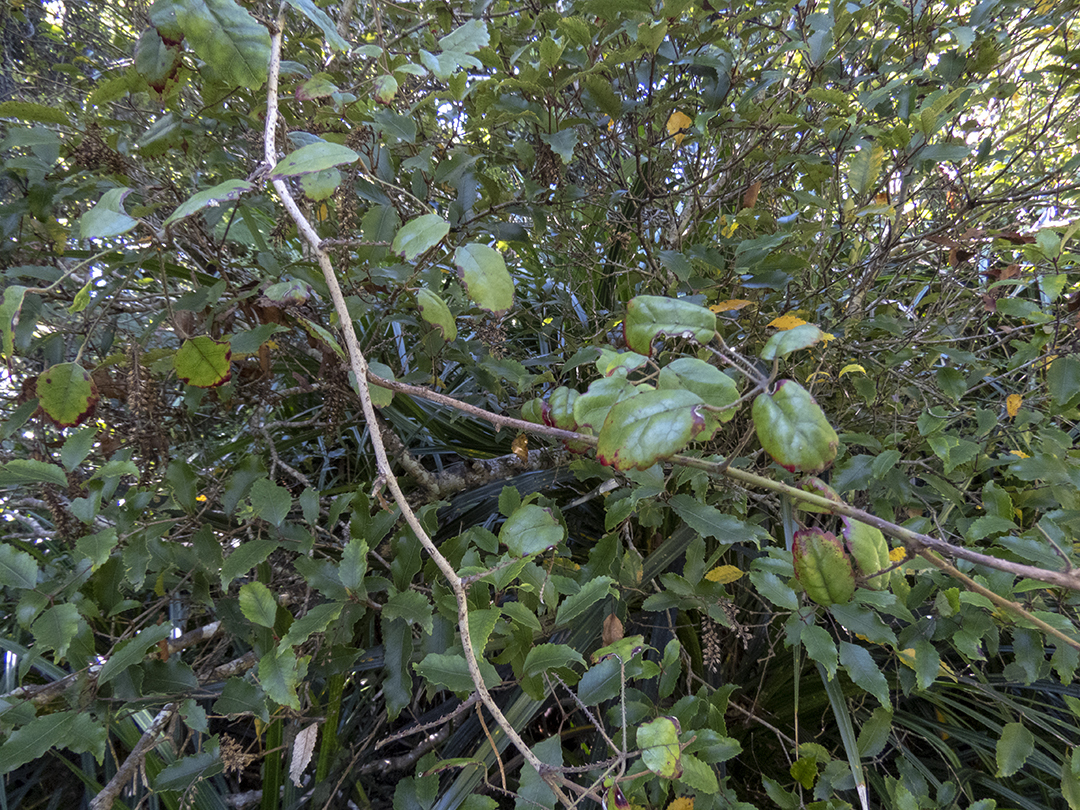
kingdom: Plantae
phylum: Tracheophyta
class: Magnoliopsida
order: Rosales
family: Rosaceae
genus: Rubus
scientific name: Rubus australis
